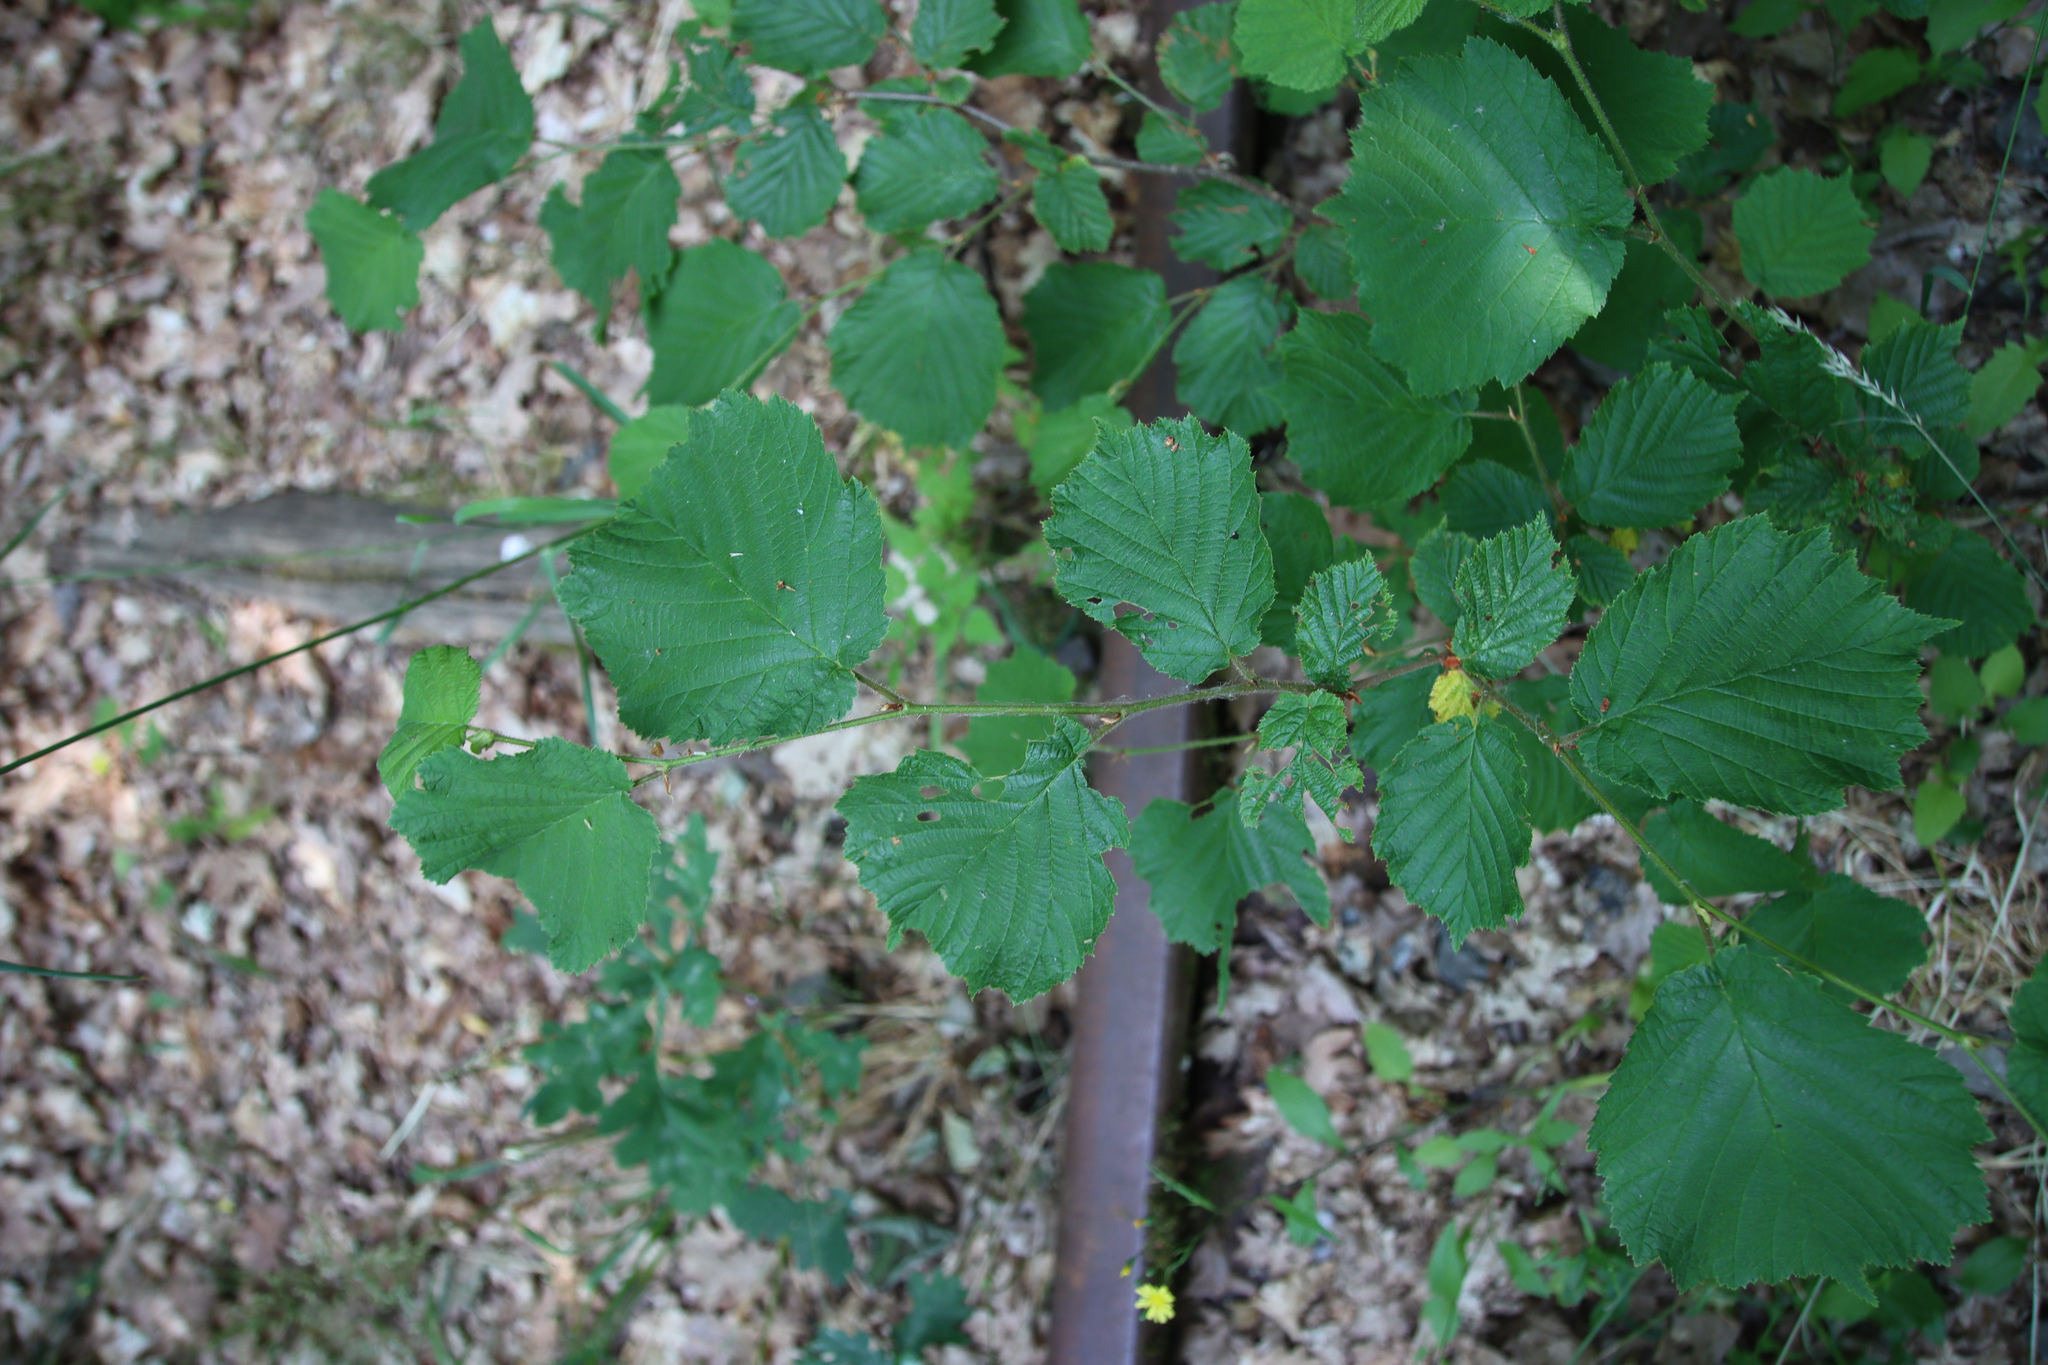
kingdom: Plantae
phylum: Tracheophyta
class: Magnoliopsida
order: Fagales
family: Betulaceae
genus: Corylus
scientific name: Corylus avellana
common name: European hazel
